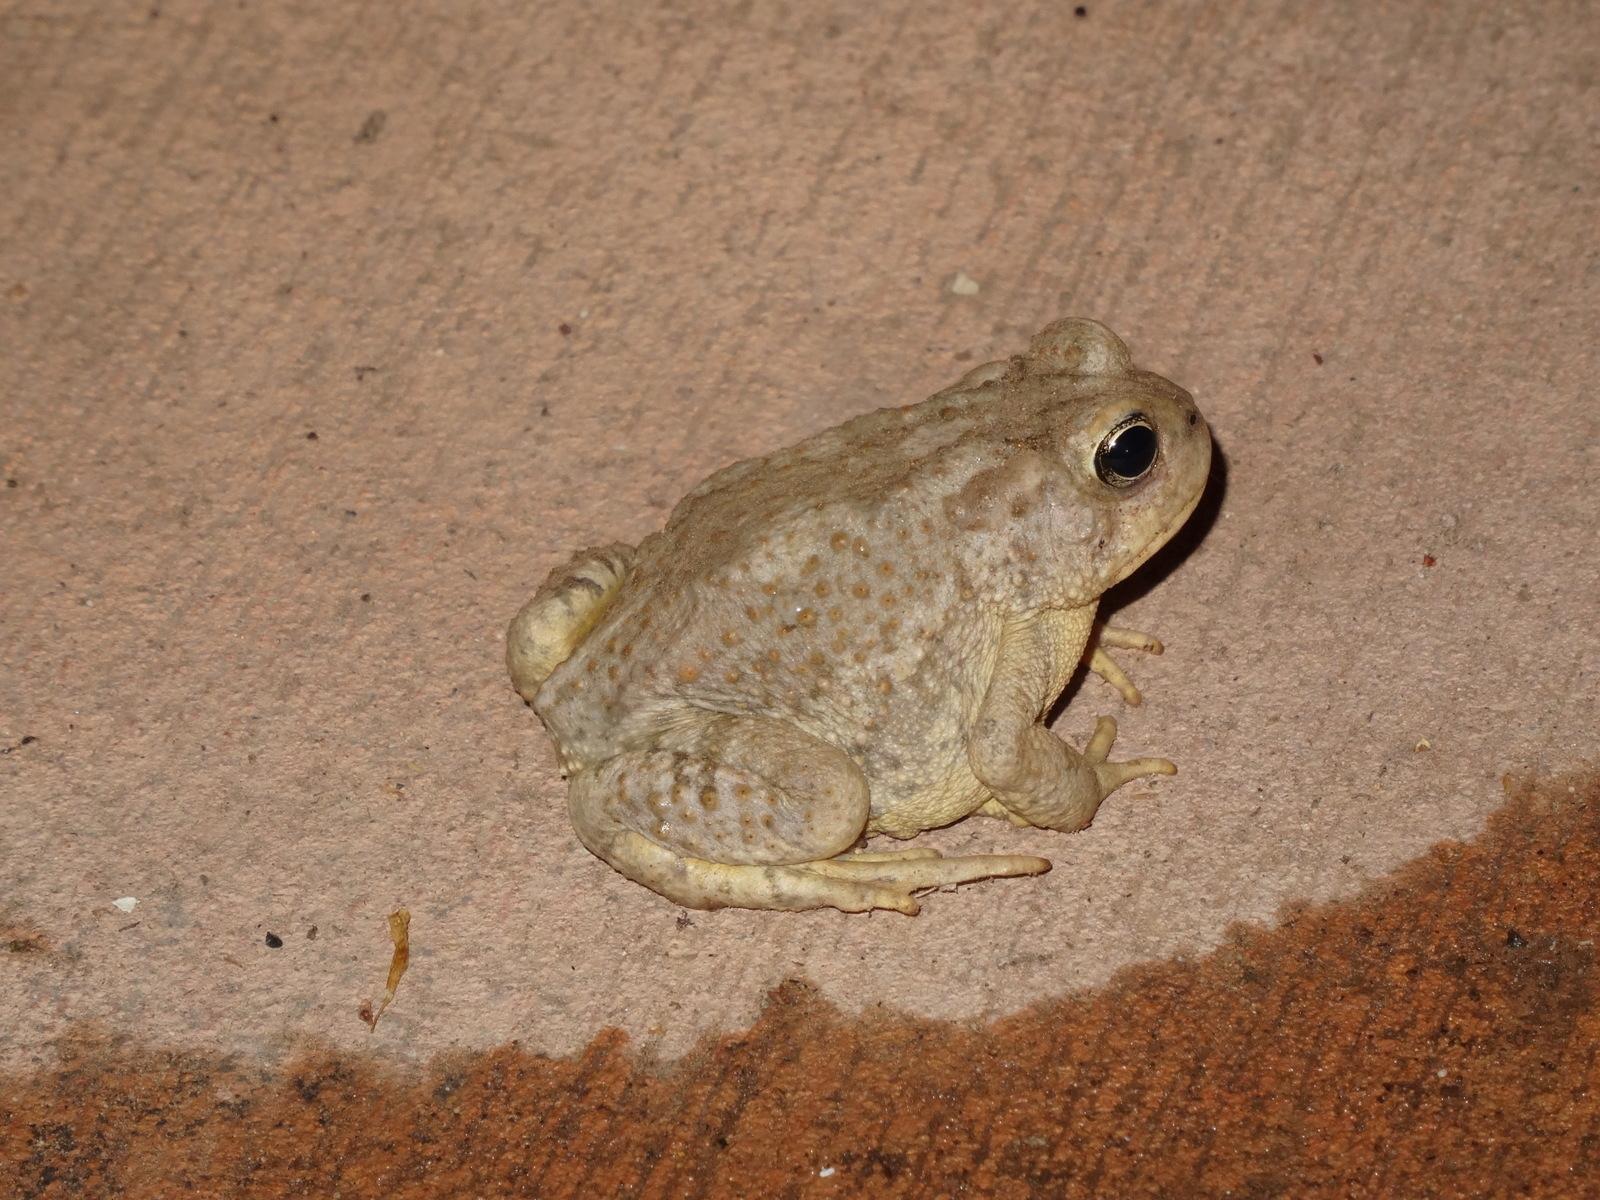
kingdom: Animalia
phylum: Chordata
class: Amphibia
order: Anura
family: Bufonidae
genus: Anaxyrus
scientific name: Anaxyrus microscaphus
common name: Arizona toad
